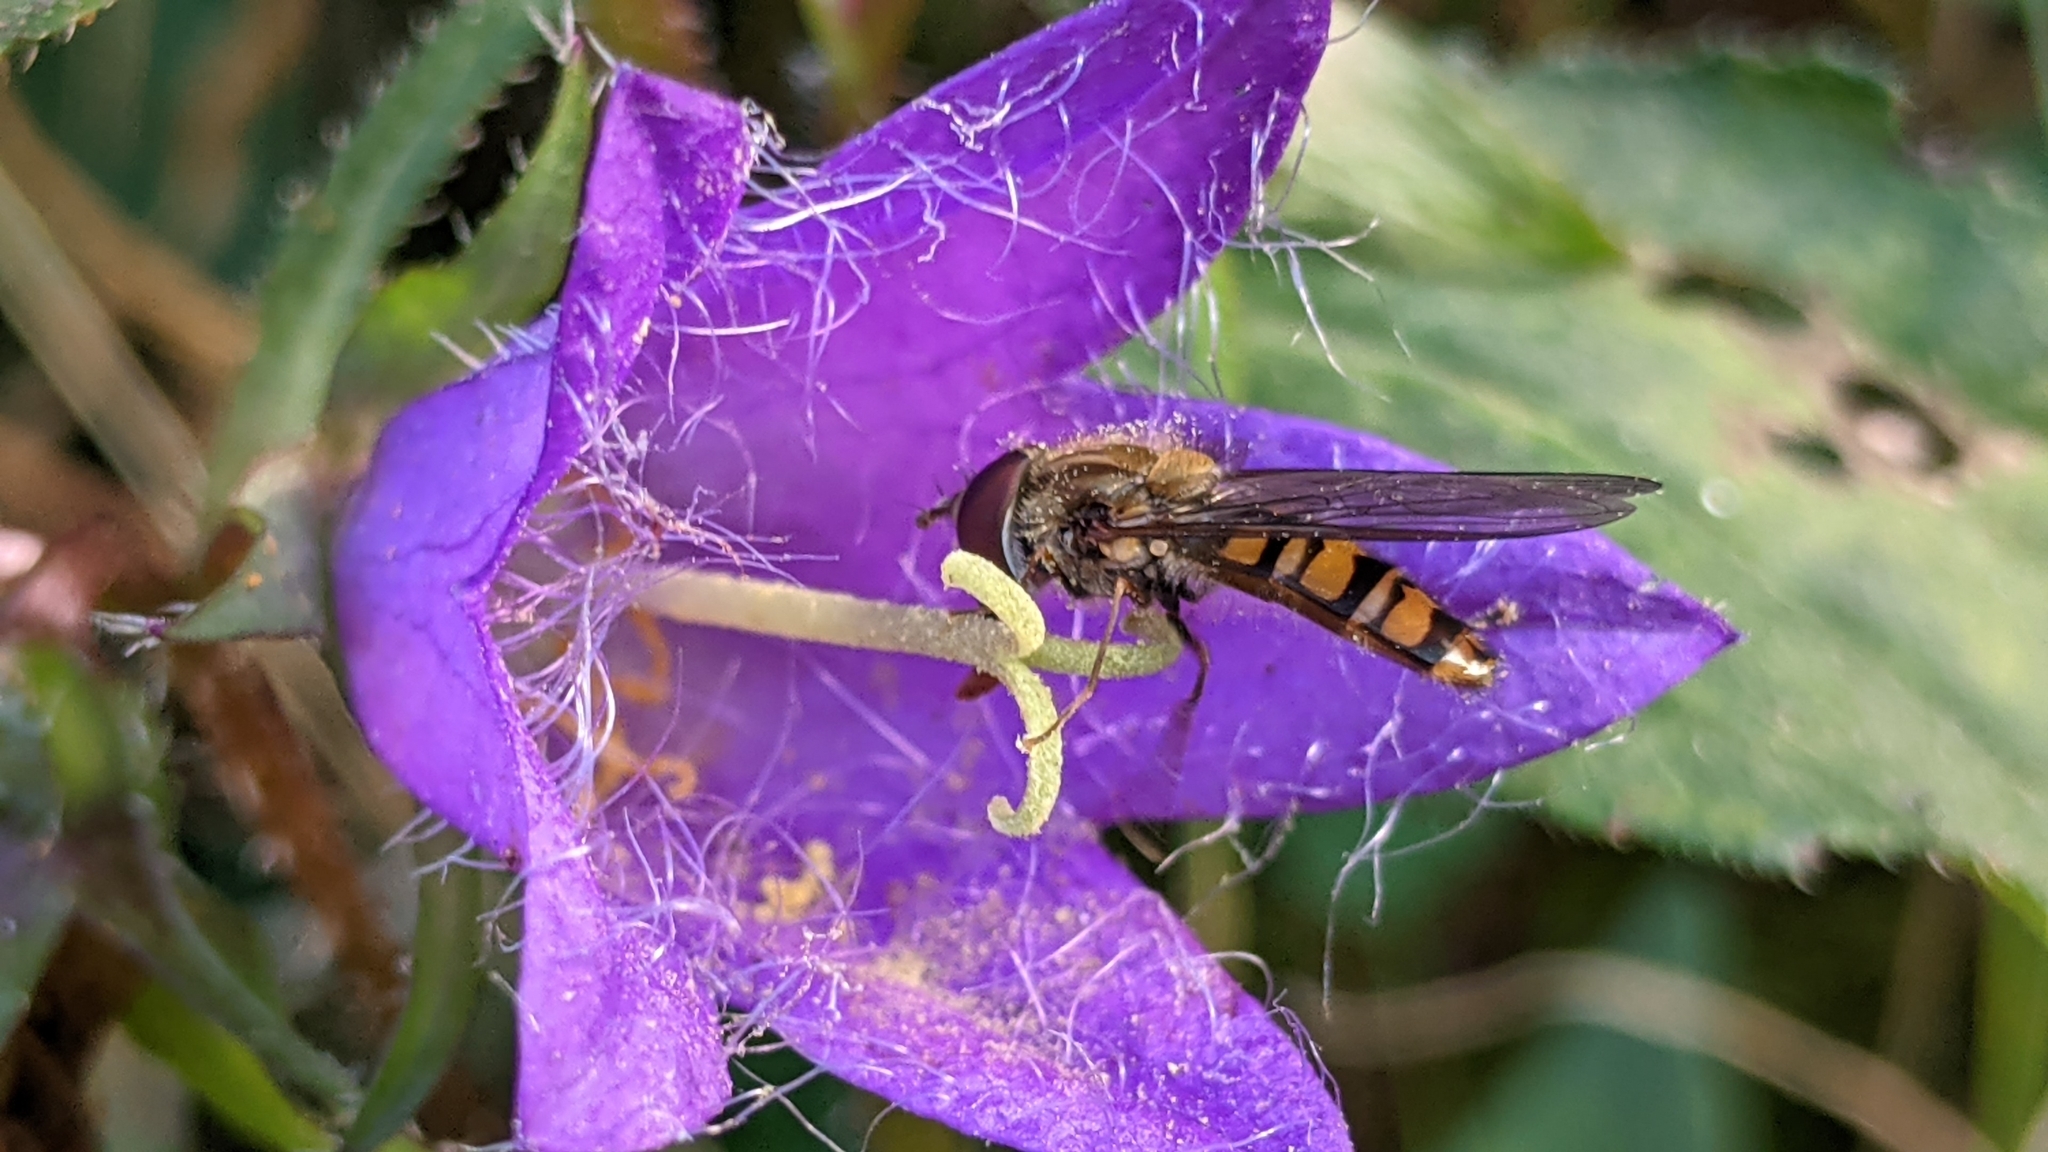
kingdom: Animalia
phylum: Arthropoda
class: Insecta
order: Diptera
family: Syrphidae
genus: Episyrphus
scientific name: Episyrphus balteatus
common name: Marmalade hoverfly
